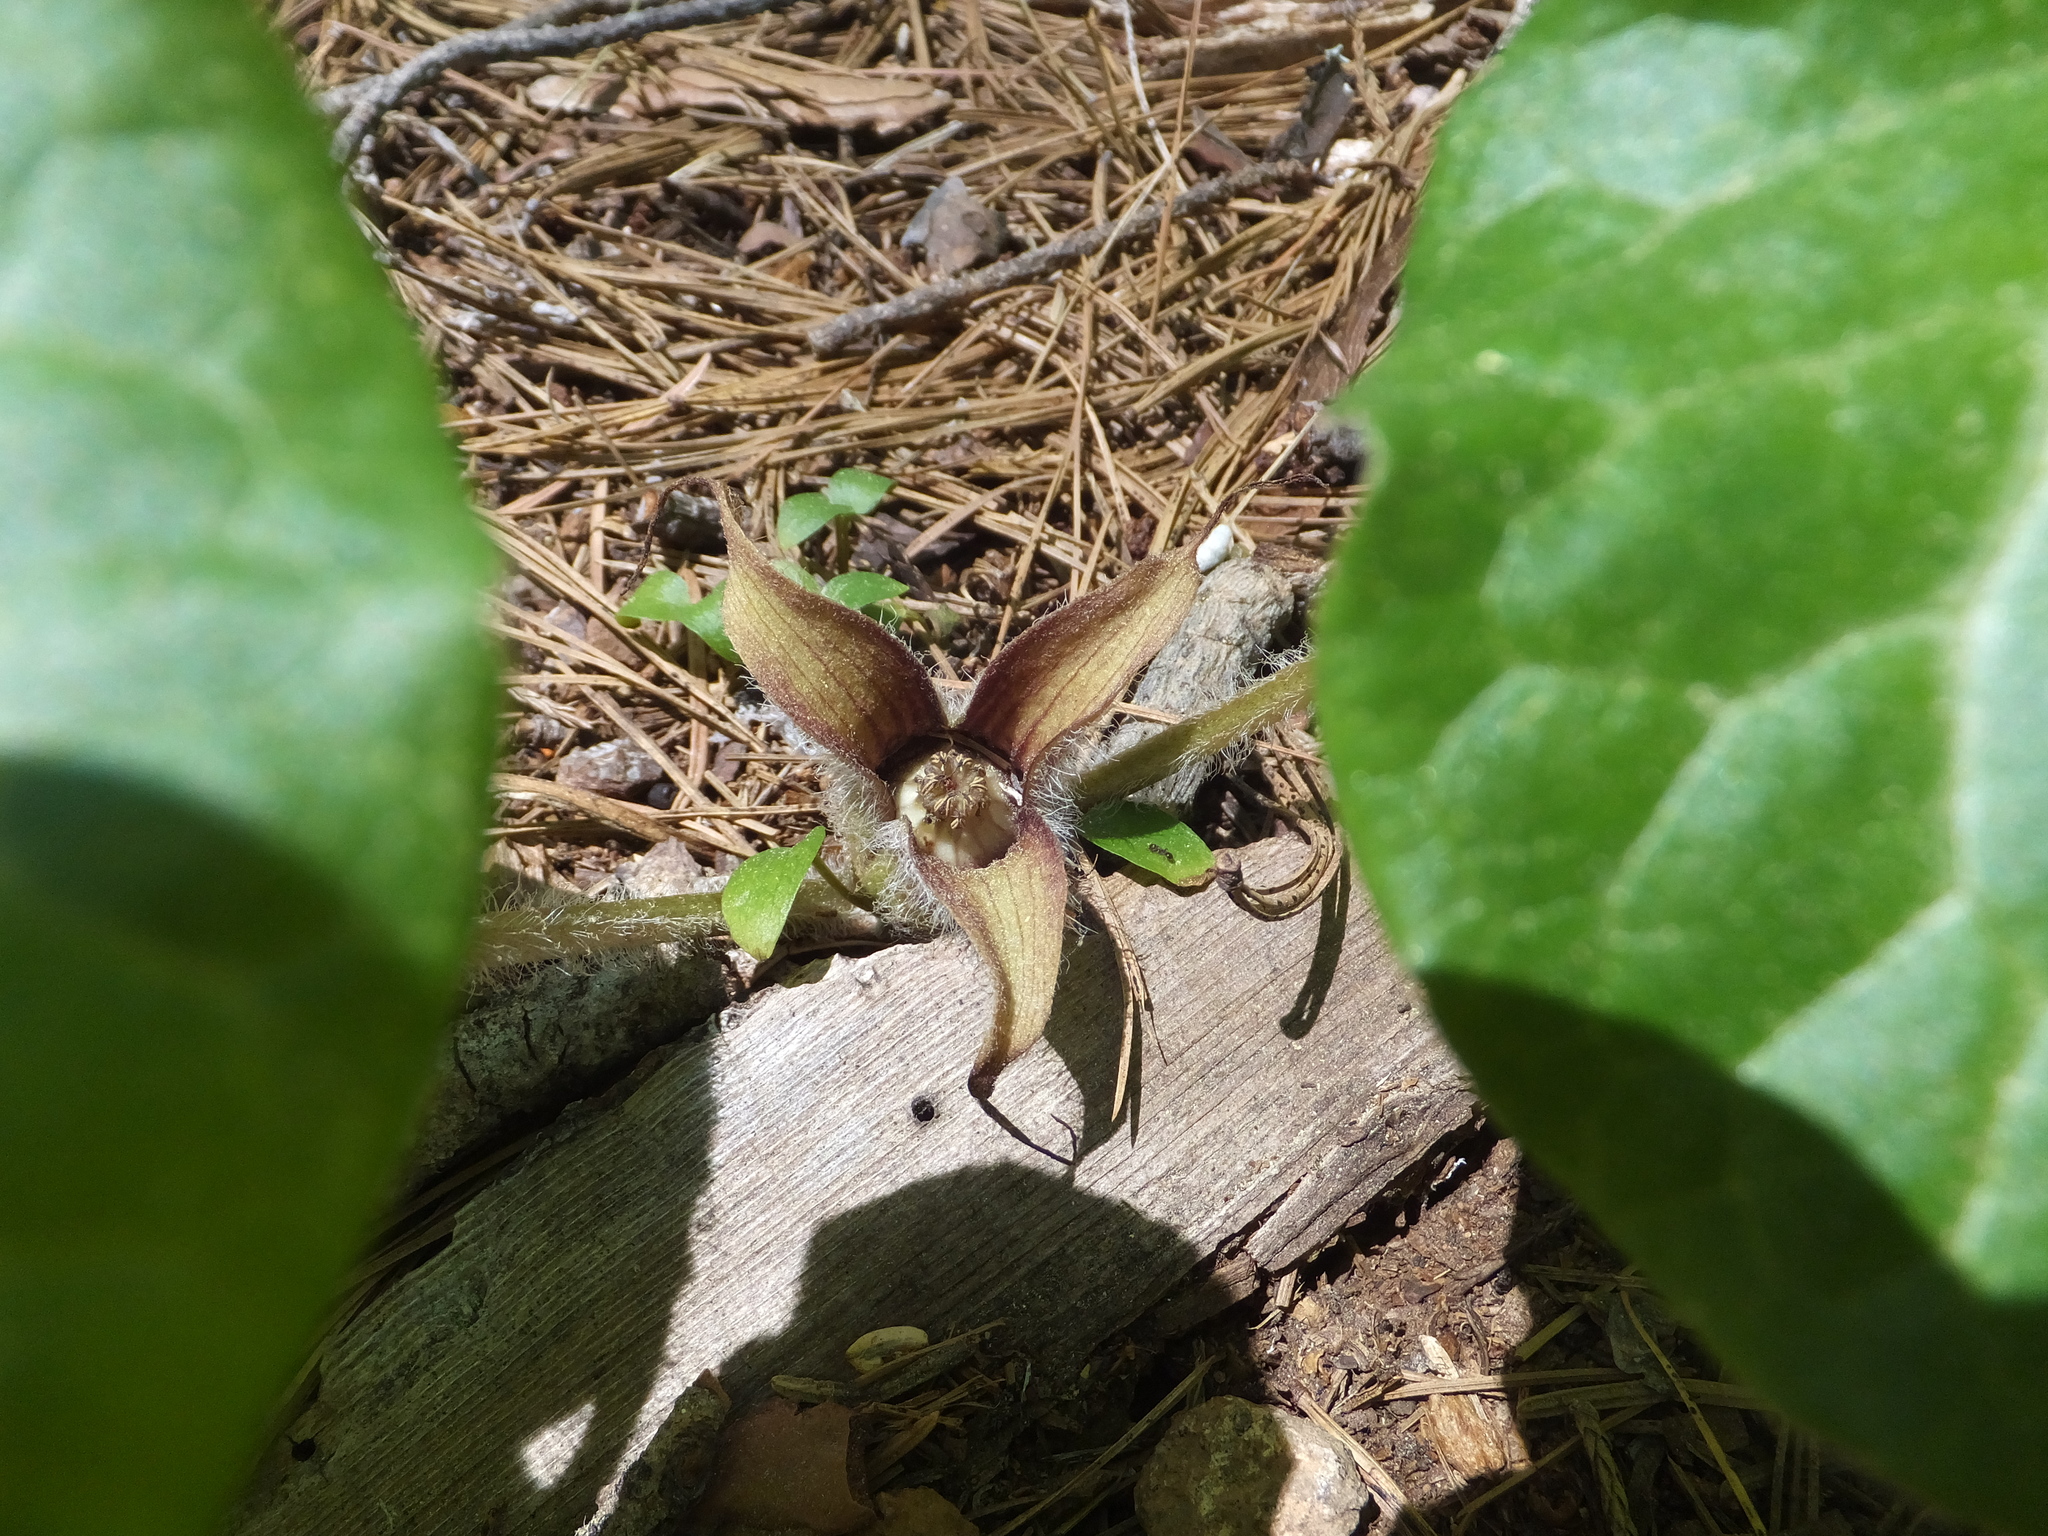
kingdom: Plantae
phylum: Tracheophyta
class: Magnoliopsida
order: Piperales
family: Aristolochiaceae
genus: Asarum
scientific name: Asarum hartwegii
